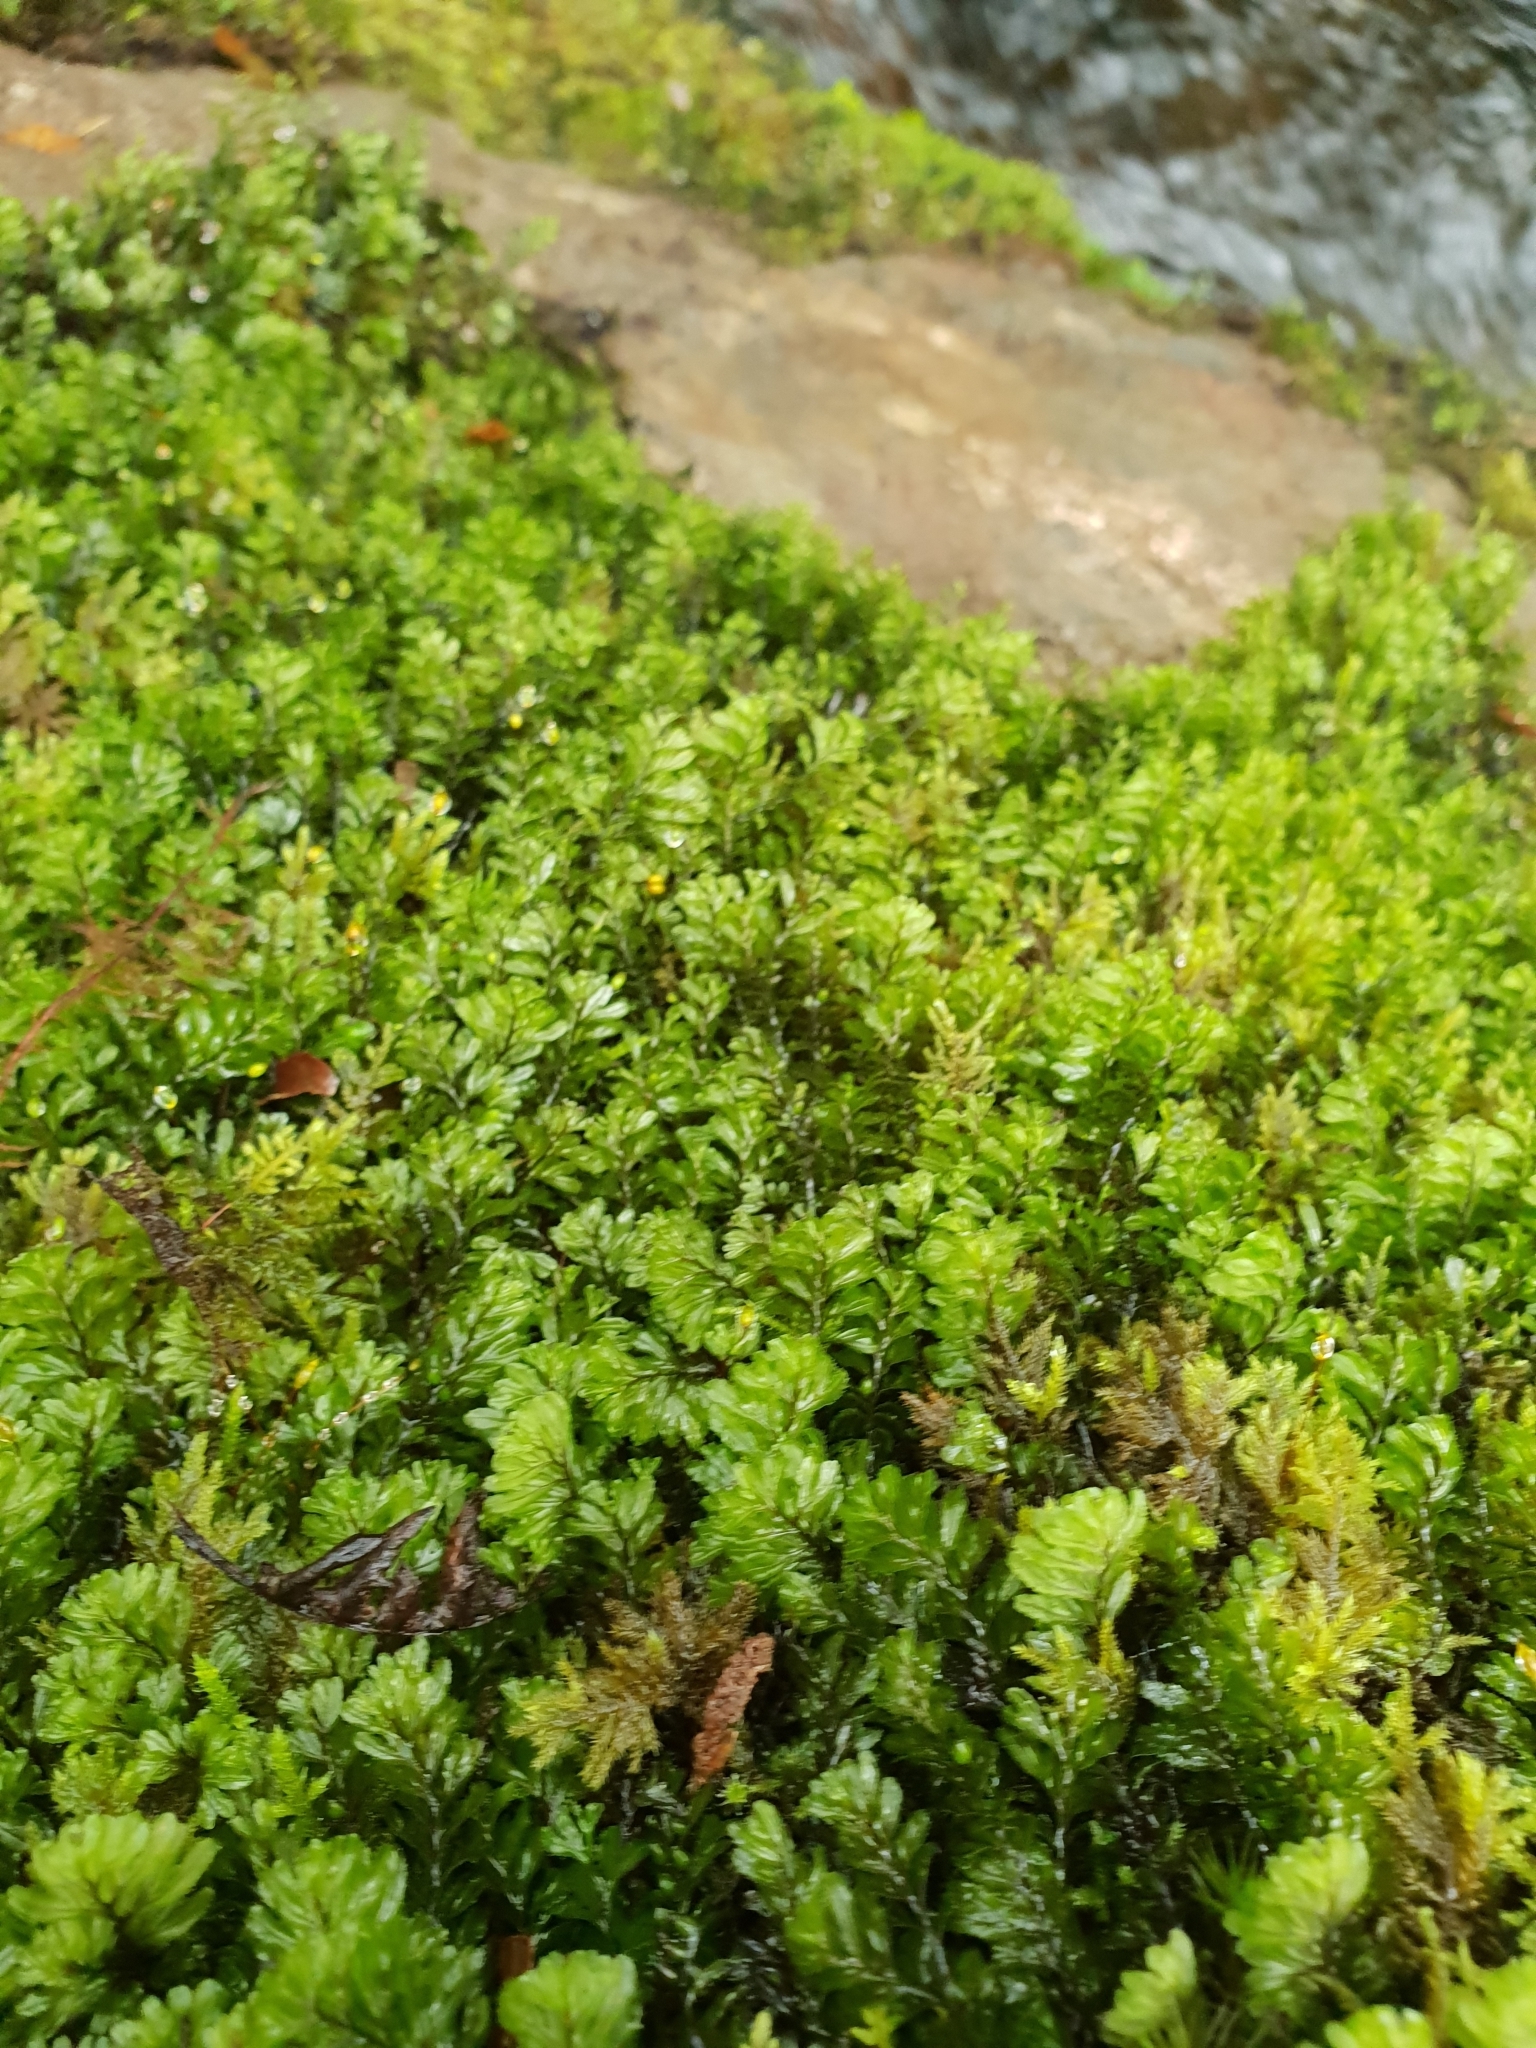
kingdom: Plantae
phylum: Tracheophyta
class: Polypodiopsida
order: Hymenophyllales
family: Hymenophyllaceae
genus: Hymenophyllum
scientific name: Hymenophyllum wilsonii
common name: Wilson's filmy fern
